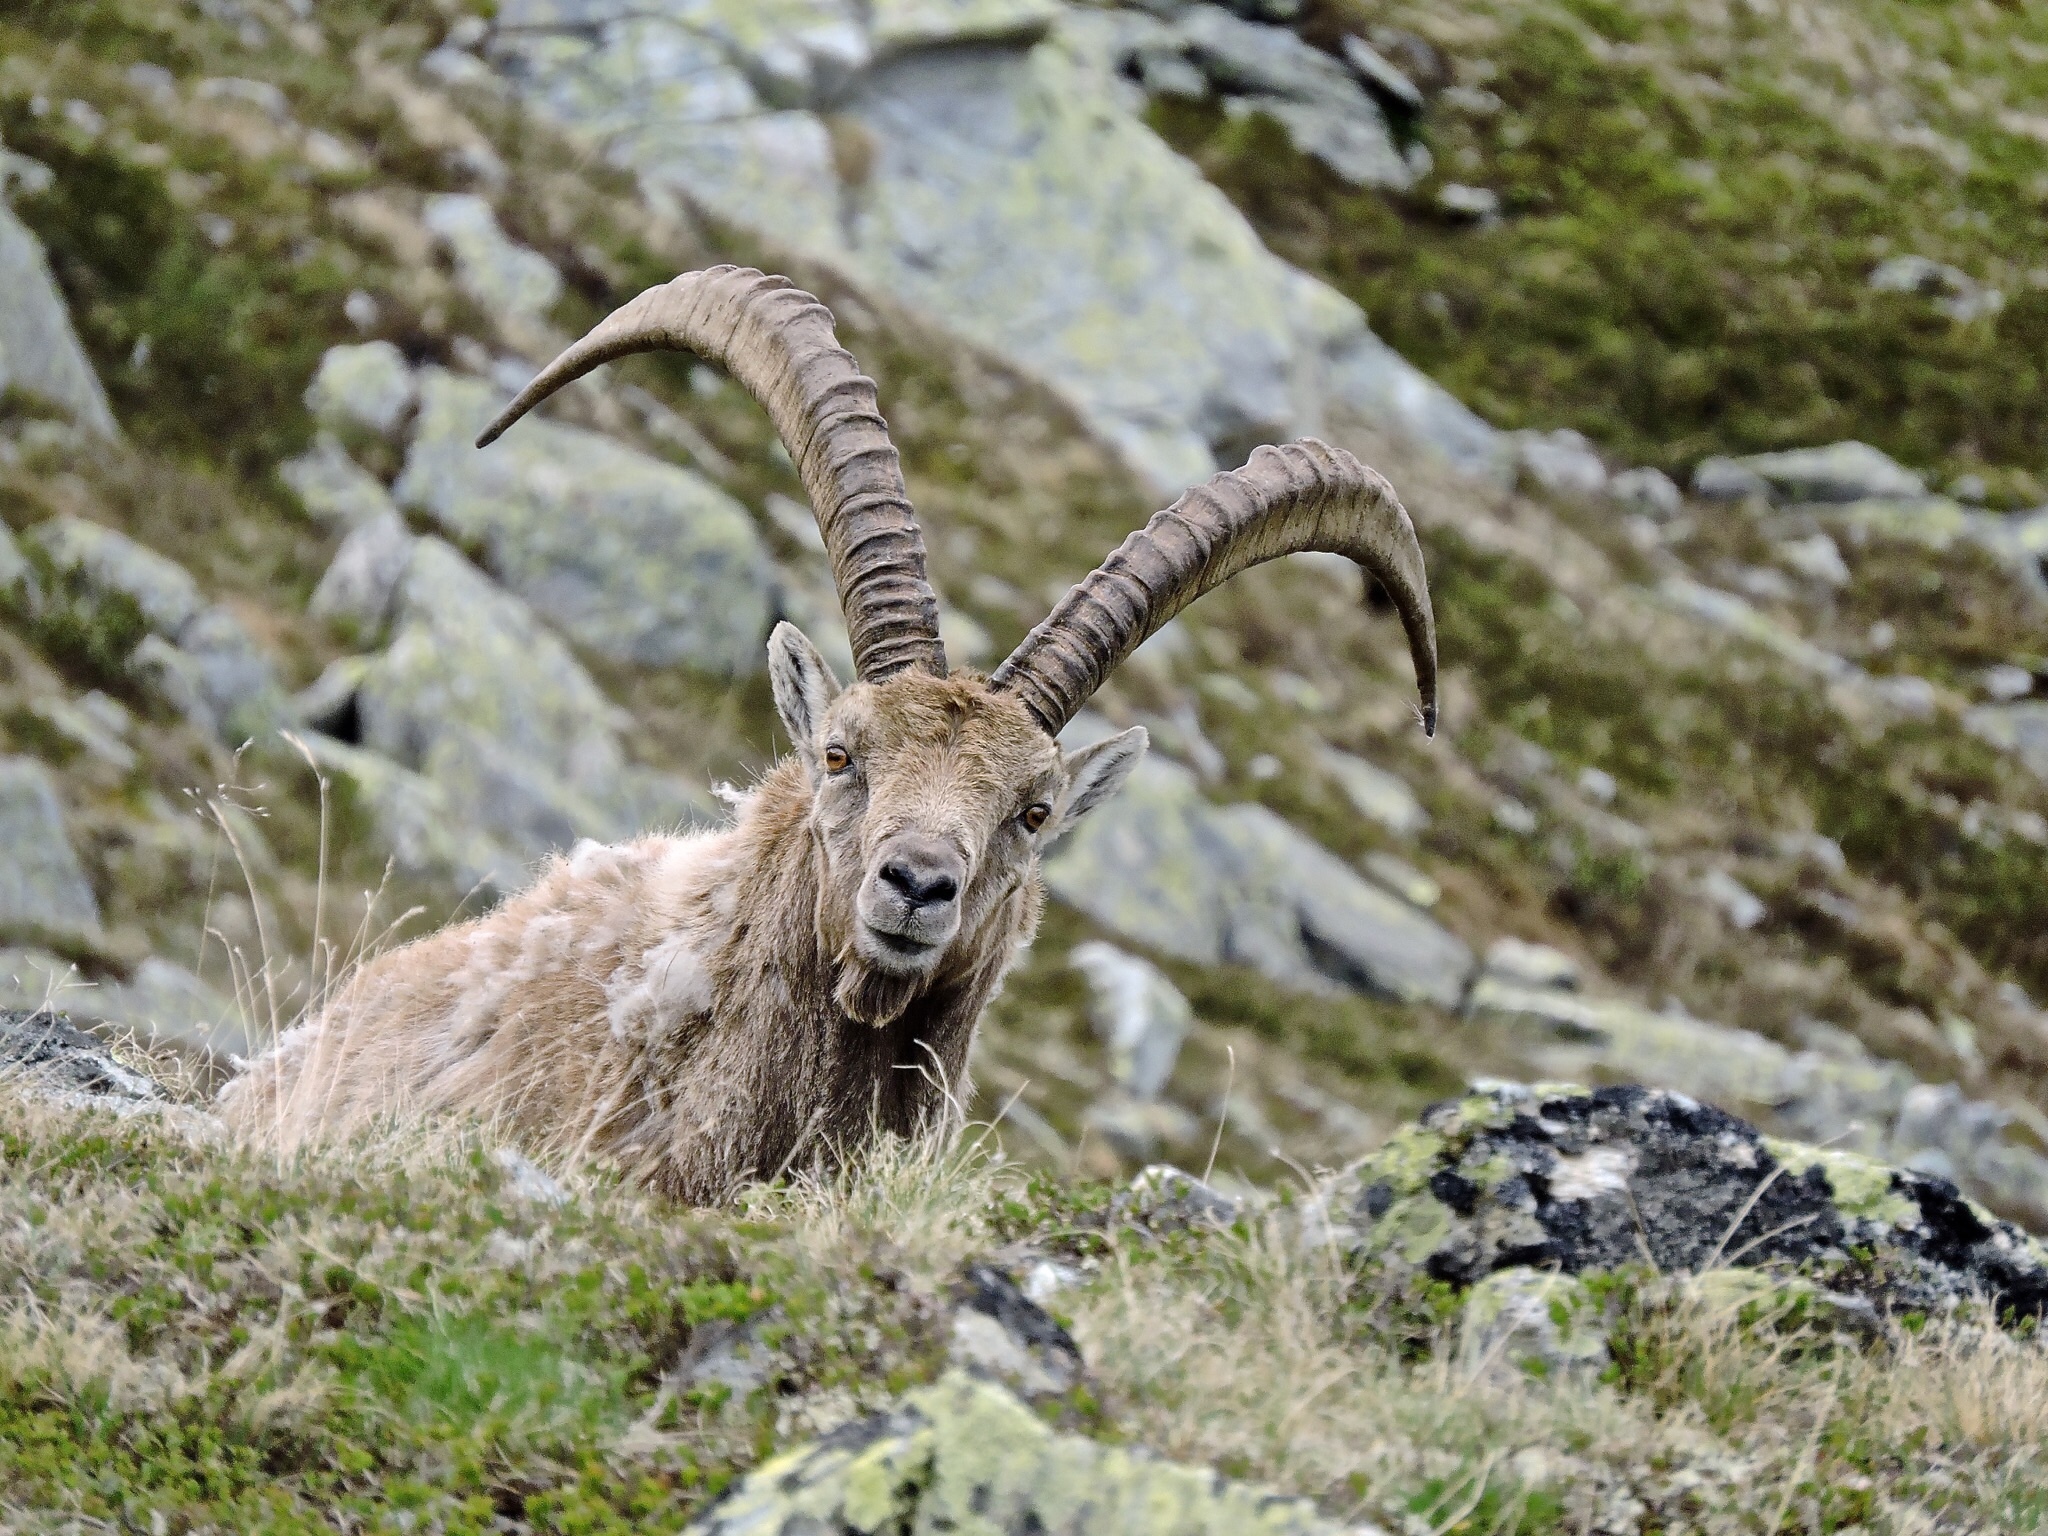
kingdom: Animalia
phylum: Chordata
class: Mammalia
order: Artiodactyla
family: Bovidae
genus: Capra
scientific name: Capra ibex
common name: Alpine ibex
